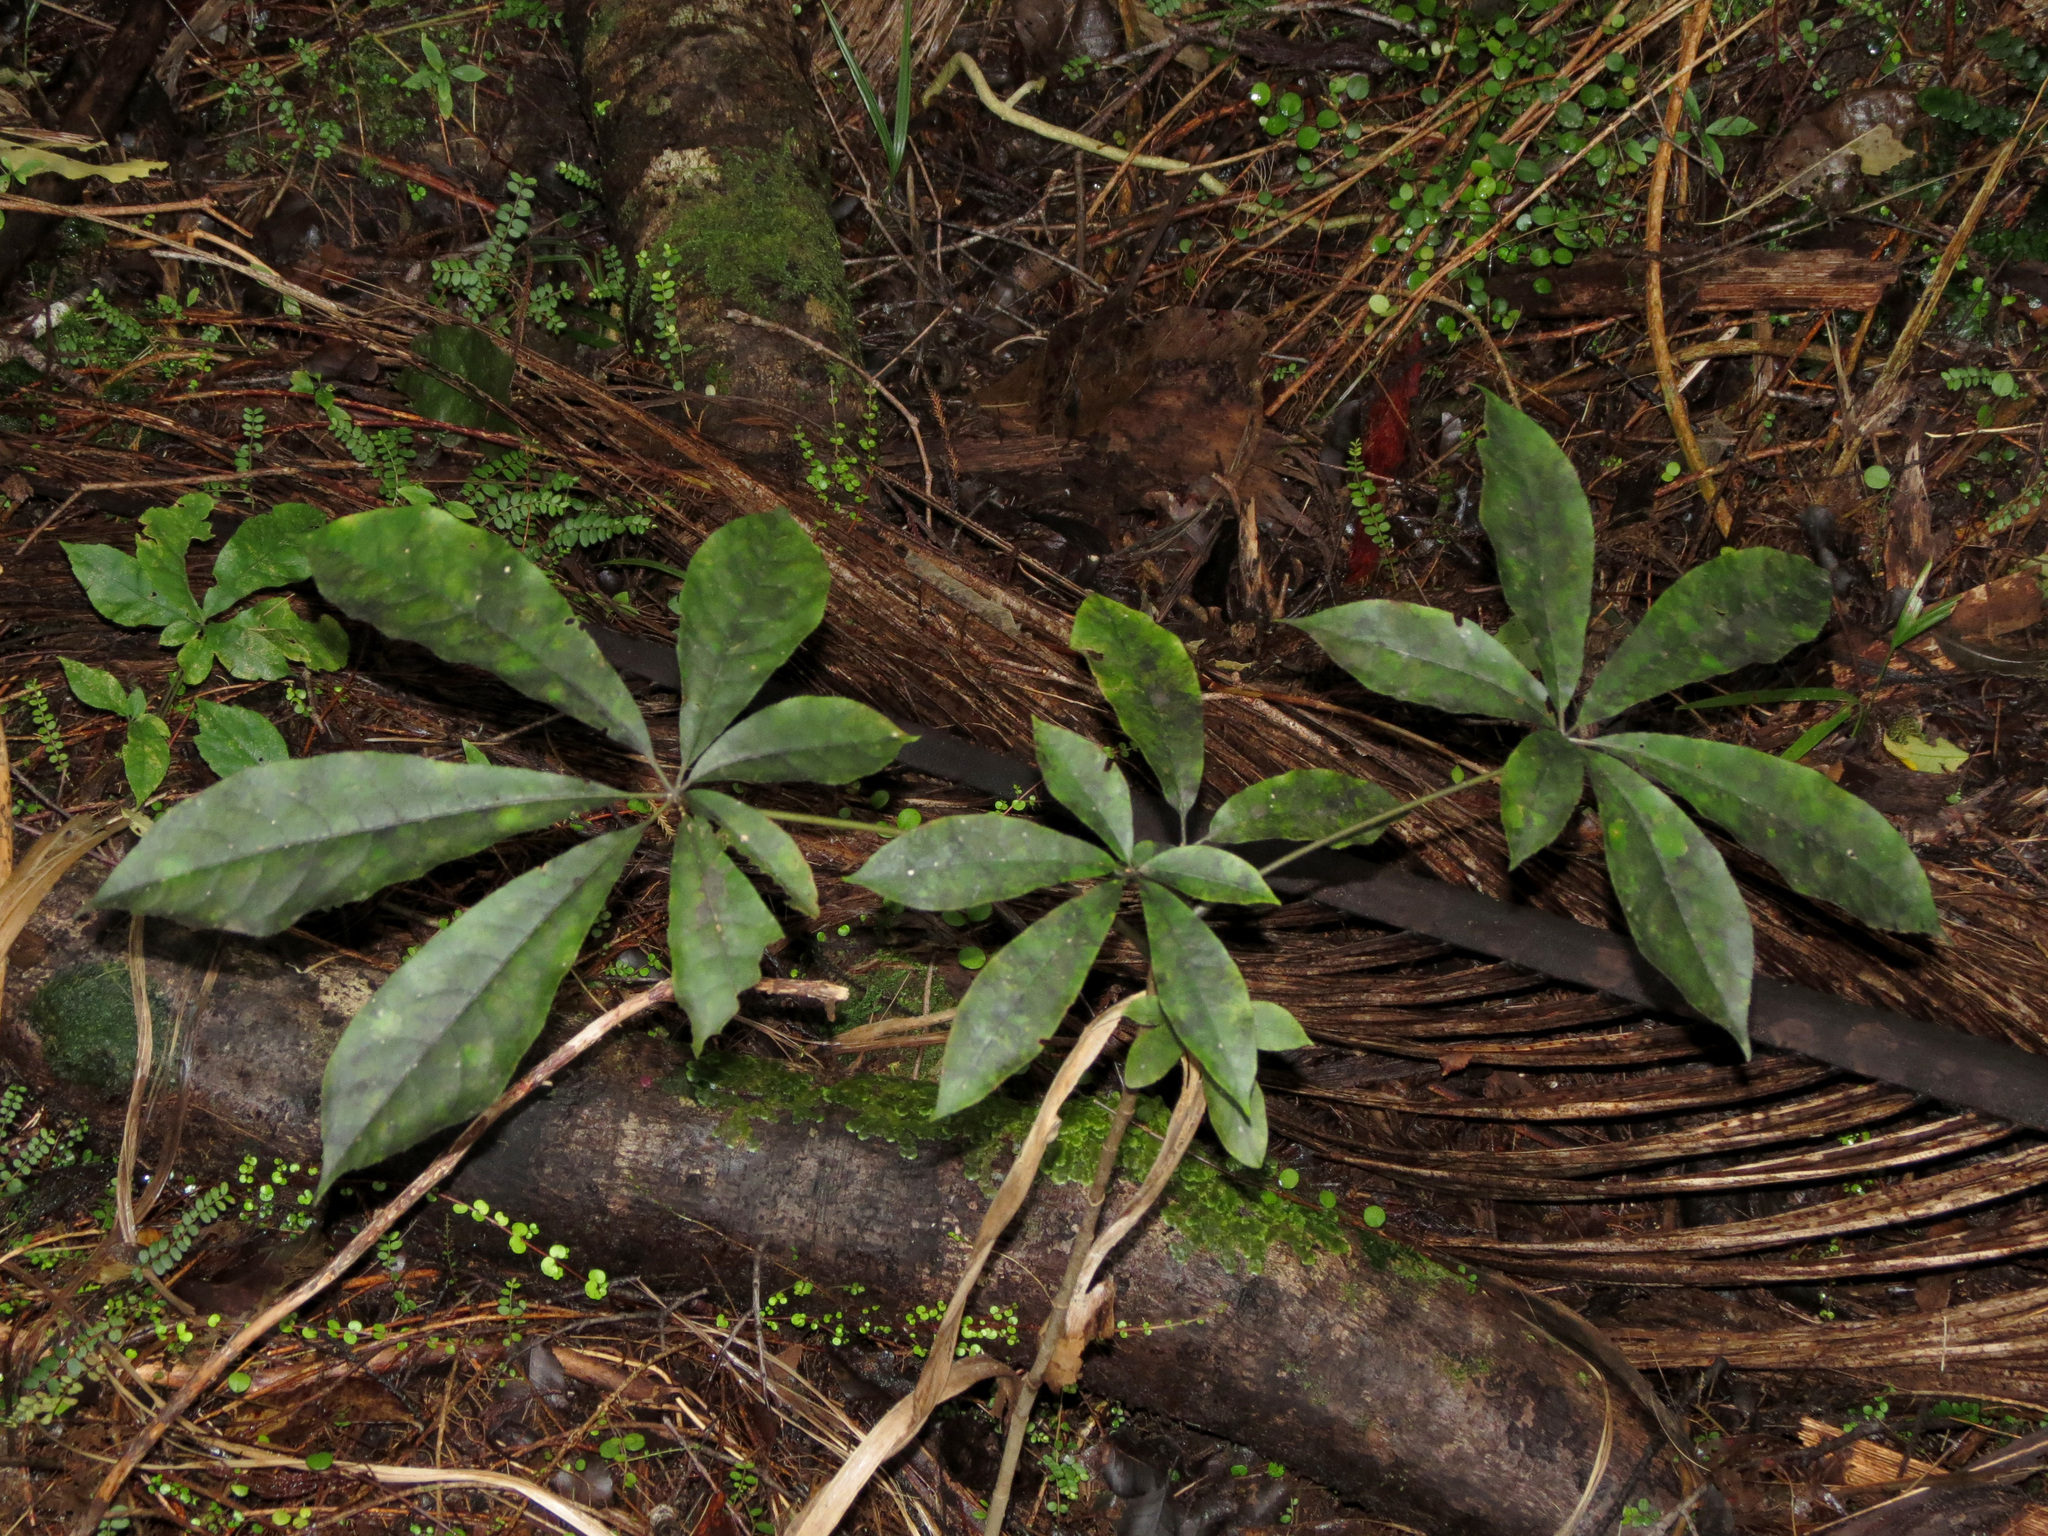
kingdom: Plantae
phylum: Tracheophyta
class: Magnoliopsida
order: Apiales
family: Araliaceae
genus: Schefflera
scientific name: Schefflera digitata
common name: Pate
